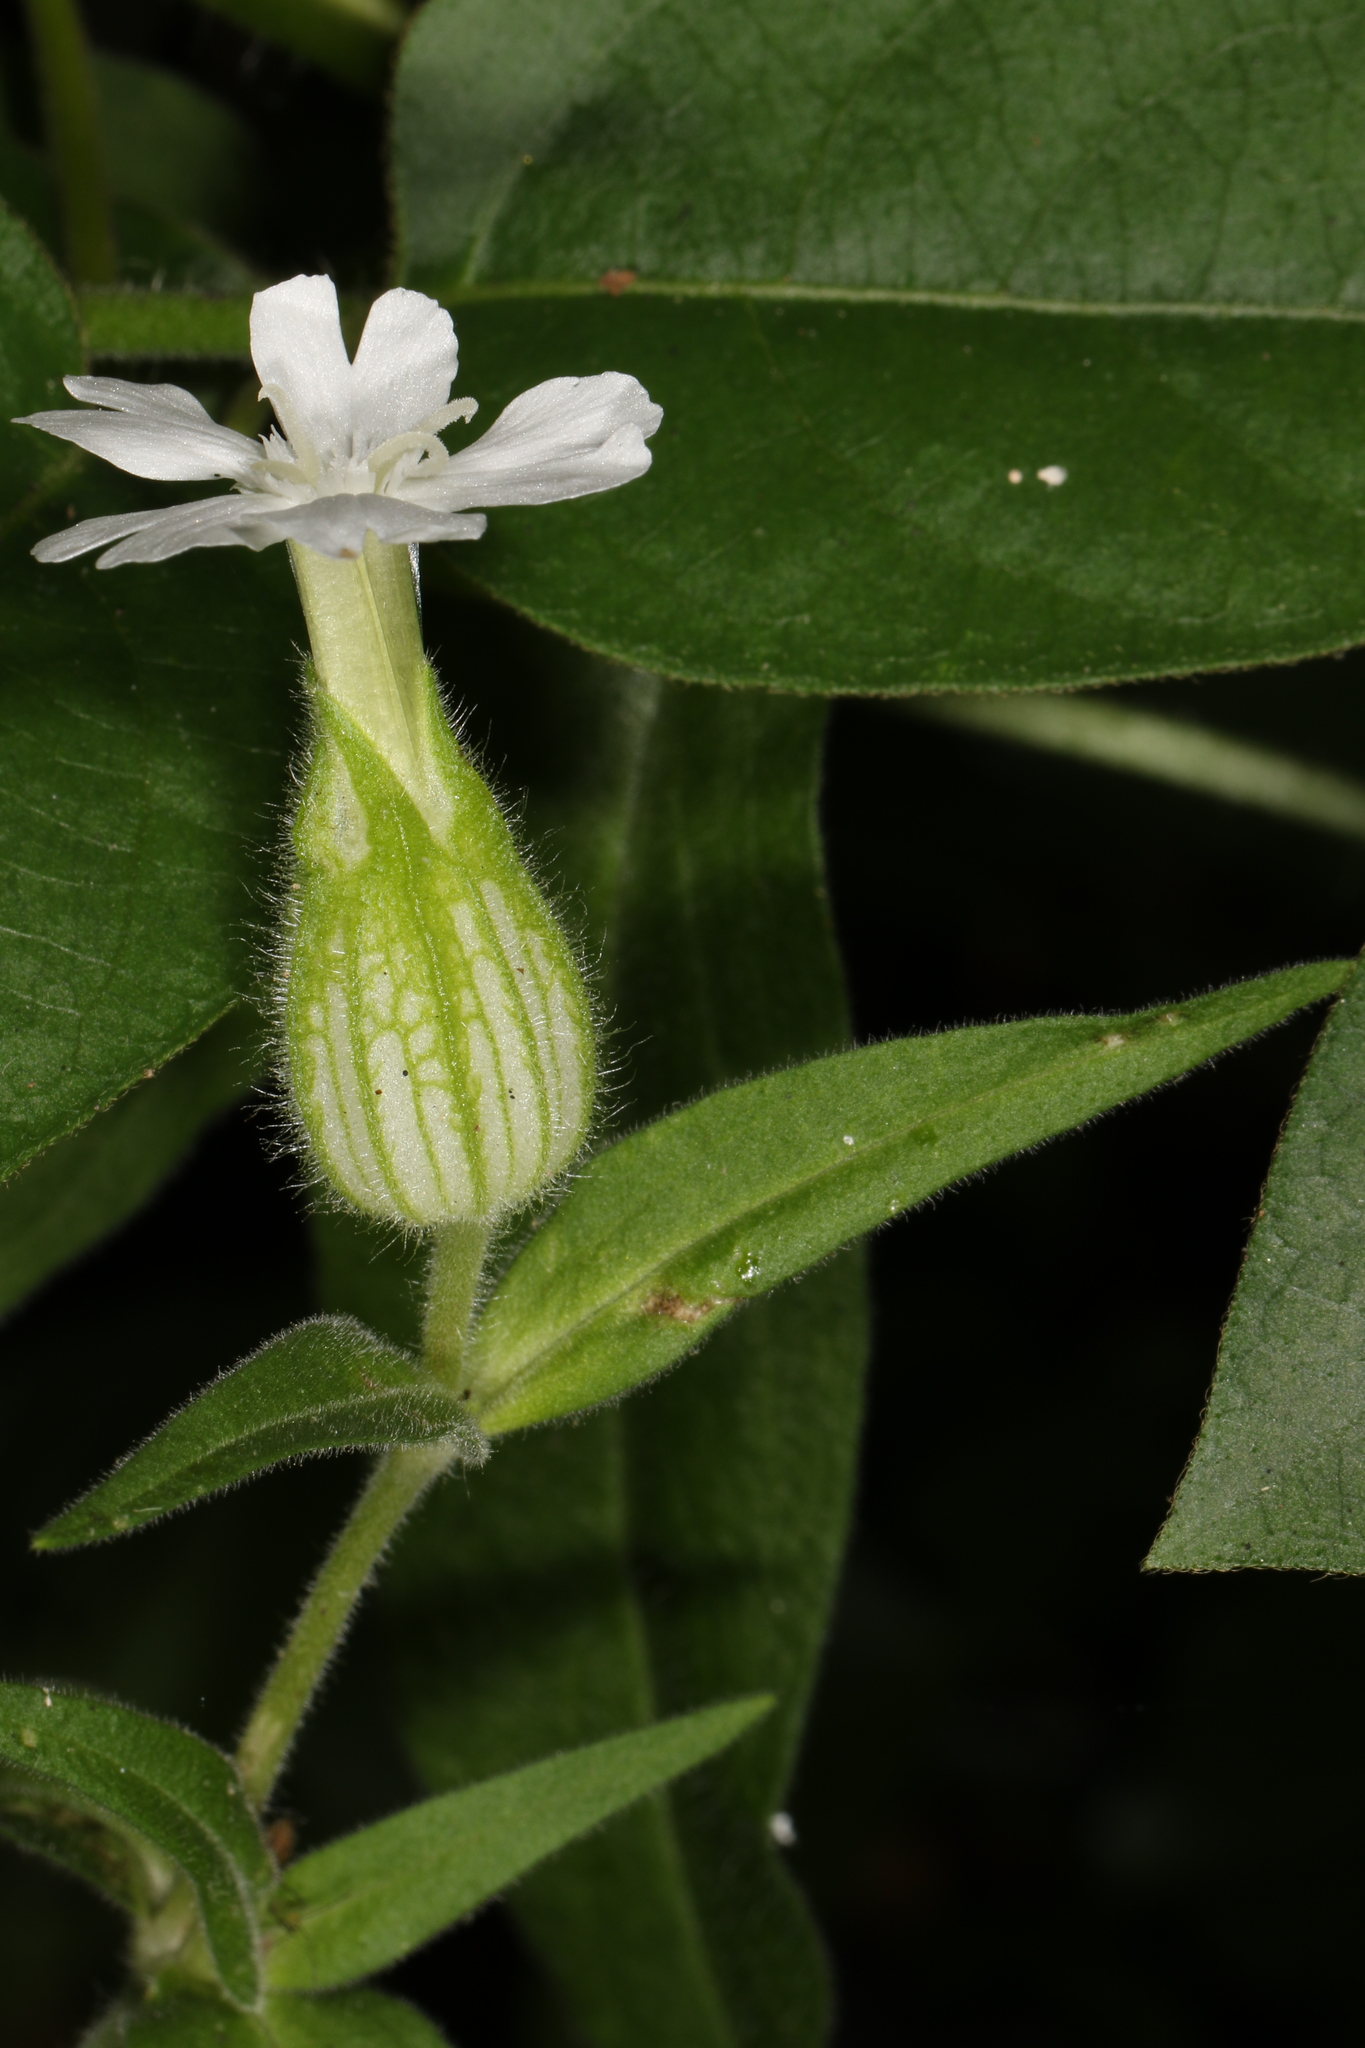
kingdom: Plantae
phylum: Tracheophyta
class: Magnoliopsida
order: Caryophyllales
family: Caryophyllaceae
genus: Silene
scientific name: Silene latifolia
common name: White campion
